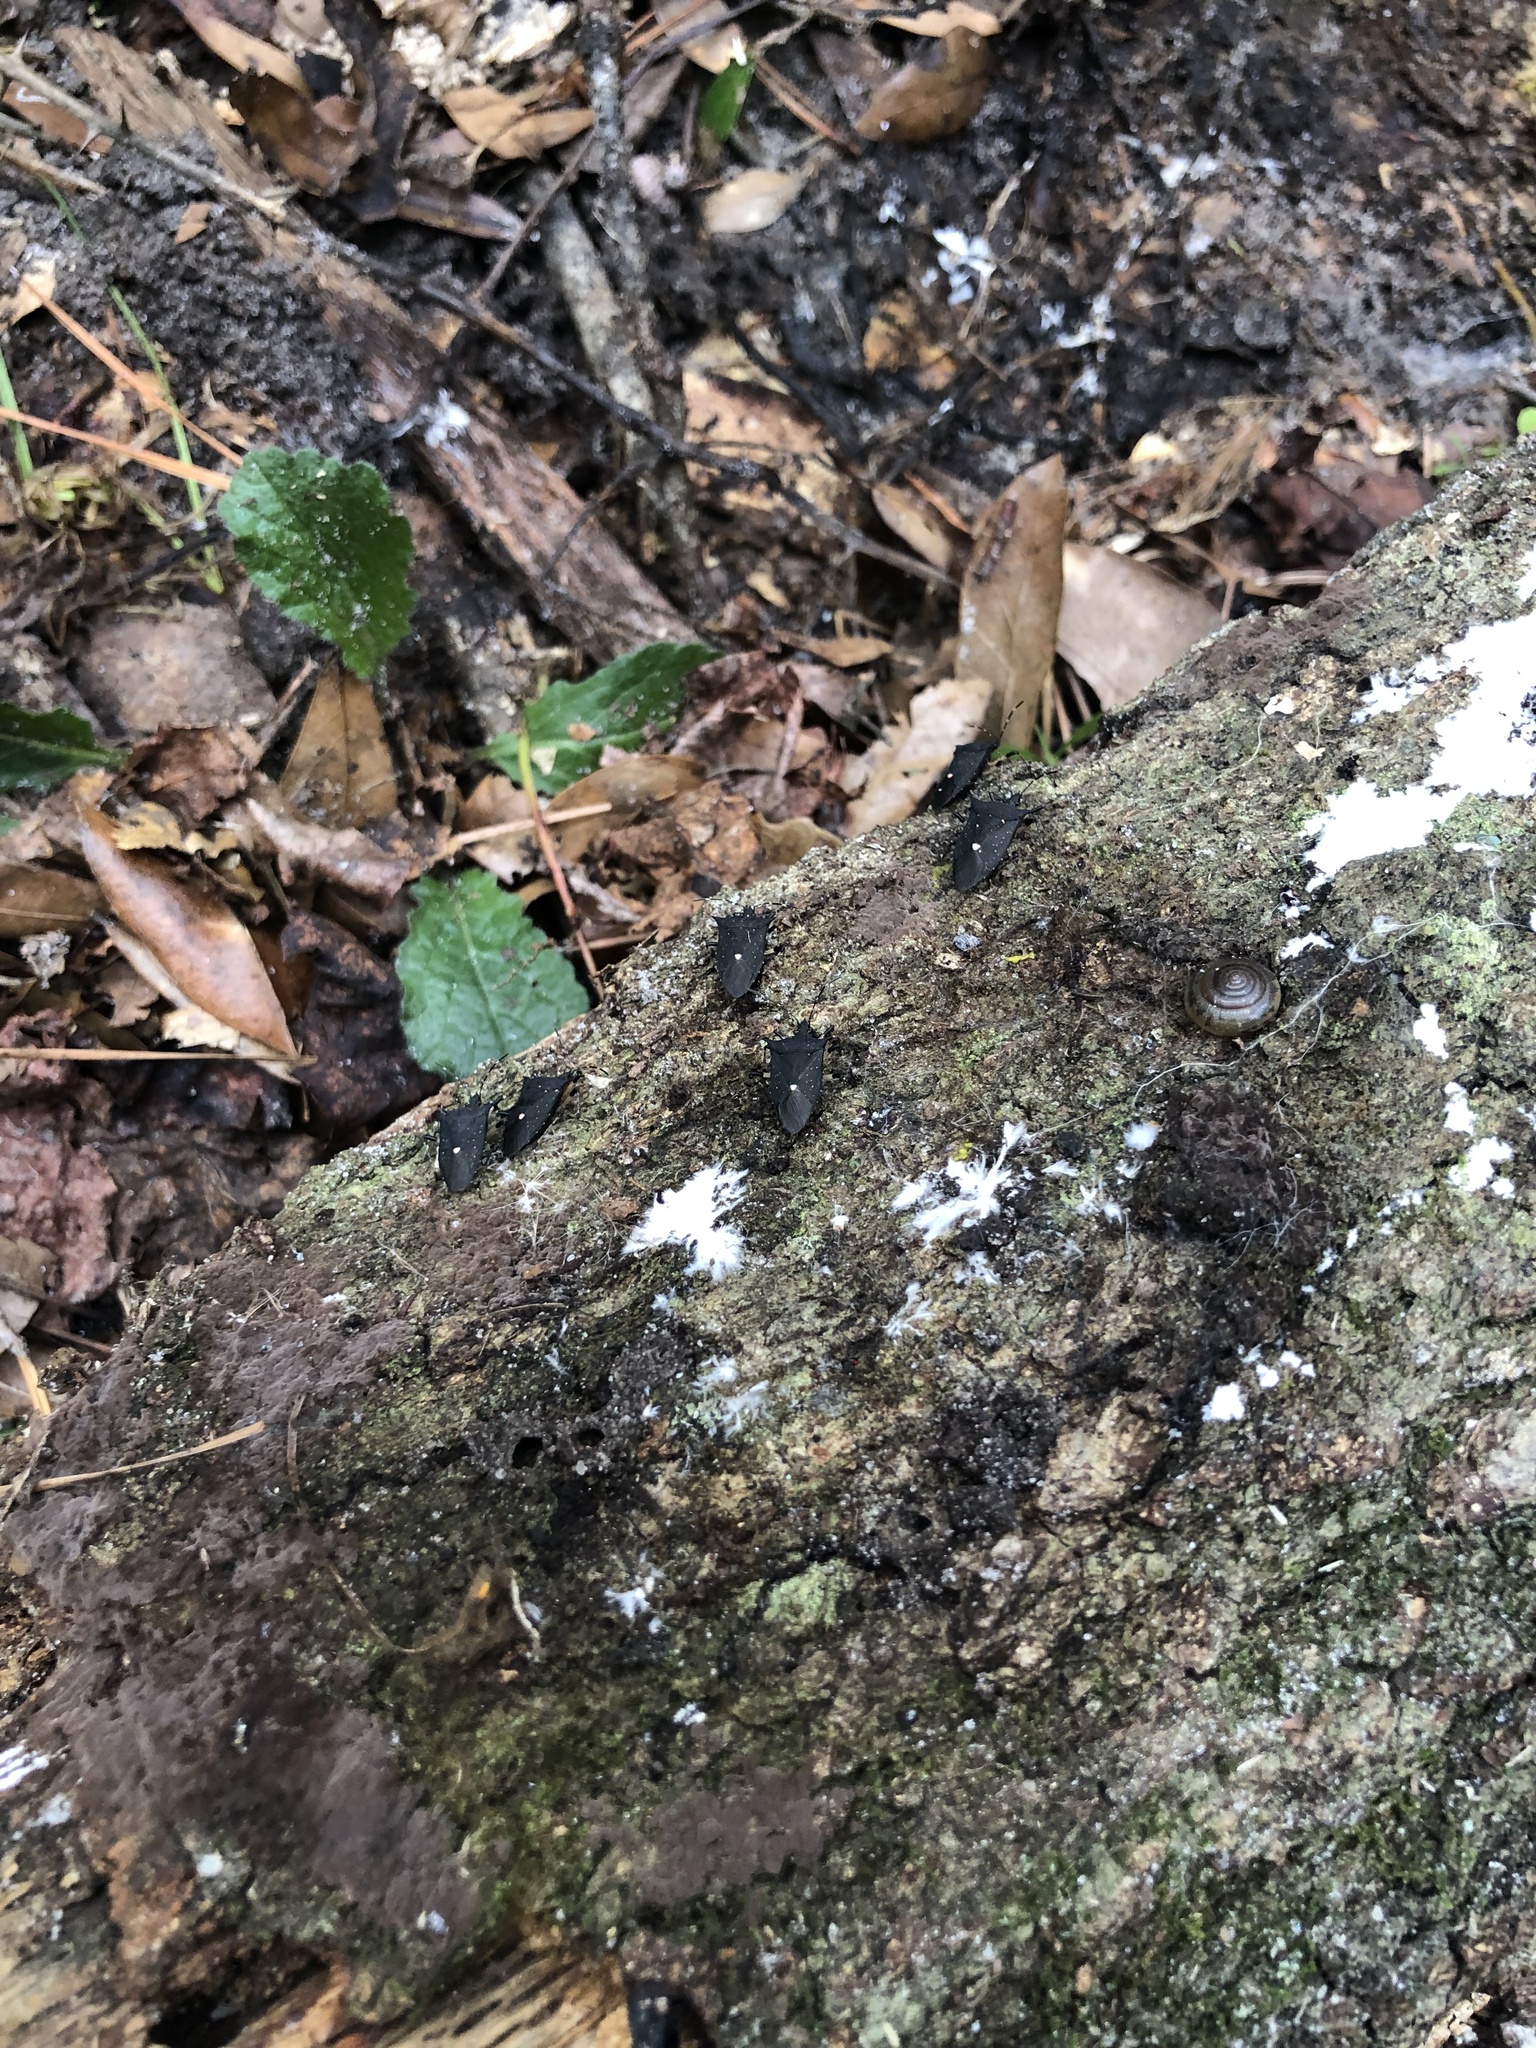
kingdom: Animalia
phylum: Arthropoda
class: Insecta
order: Hemiptera
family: Pentatomidae
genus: Proxys
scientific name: Proxys punctulatus
